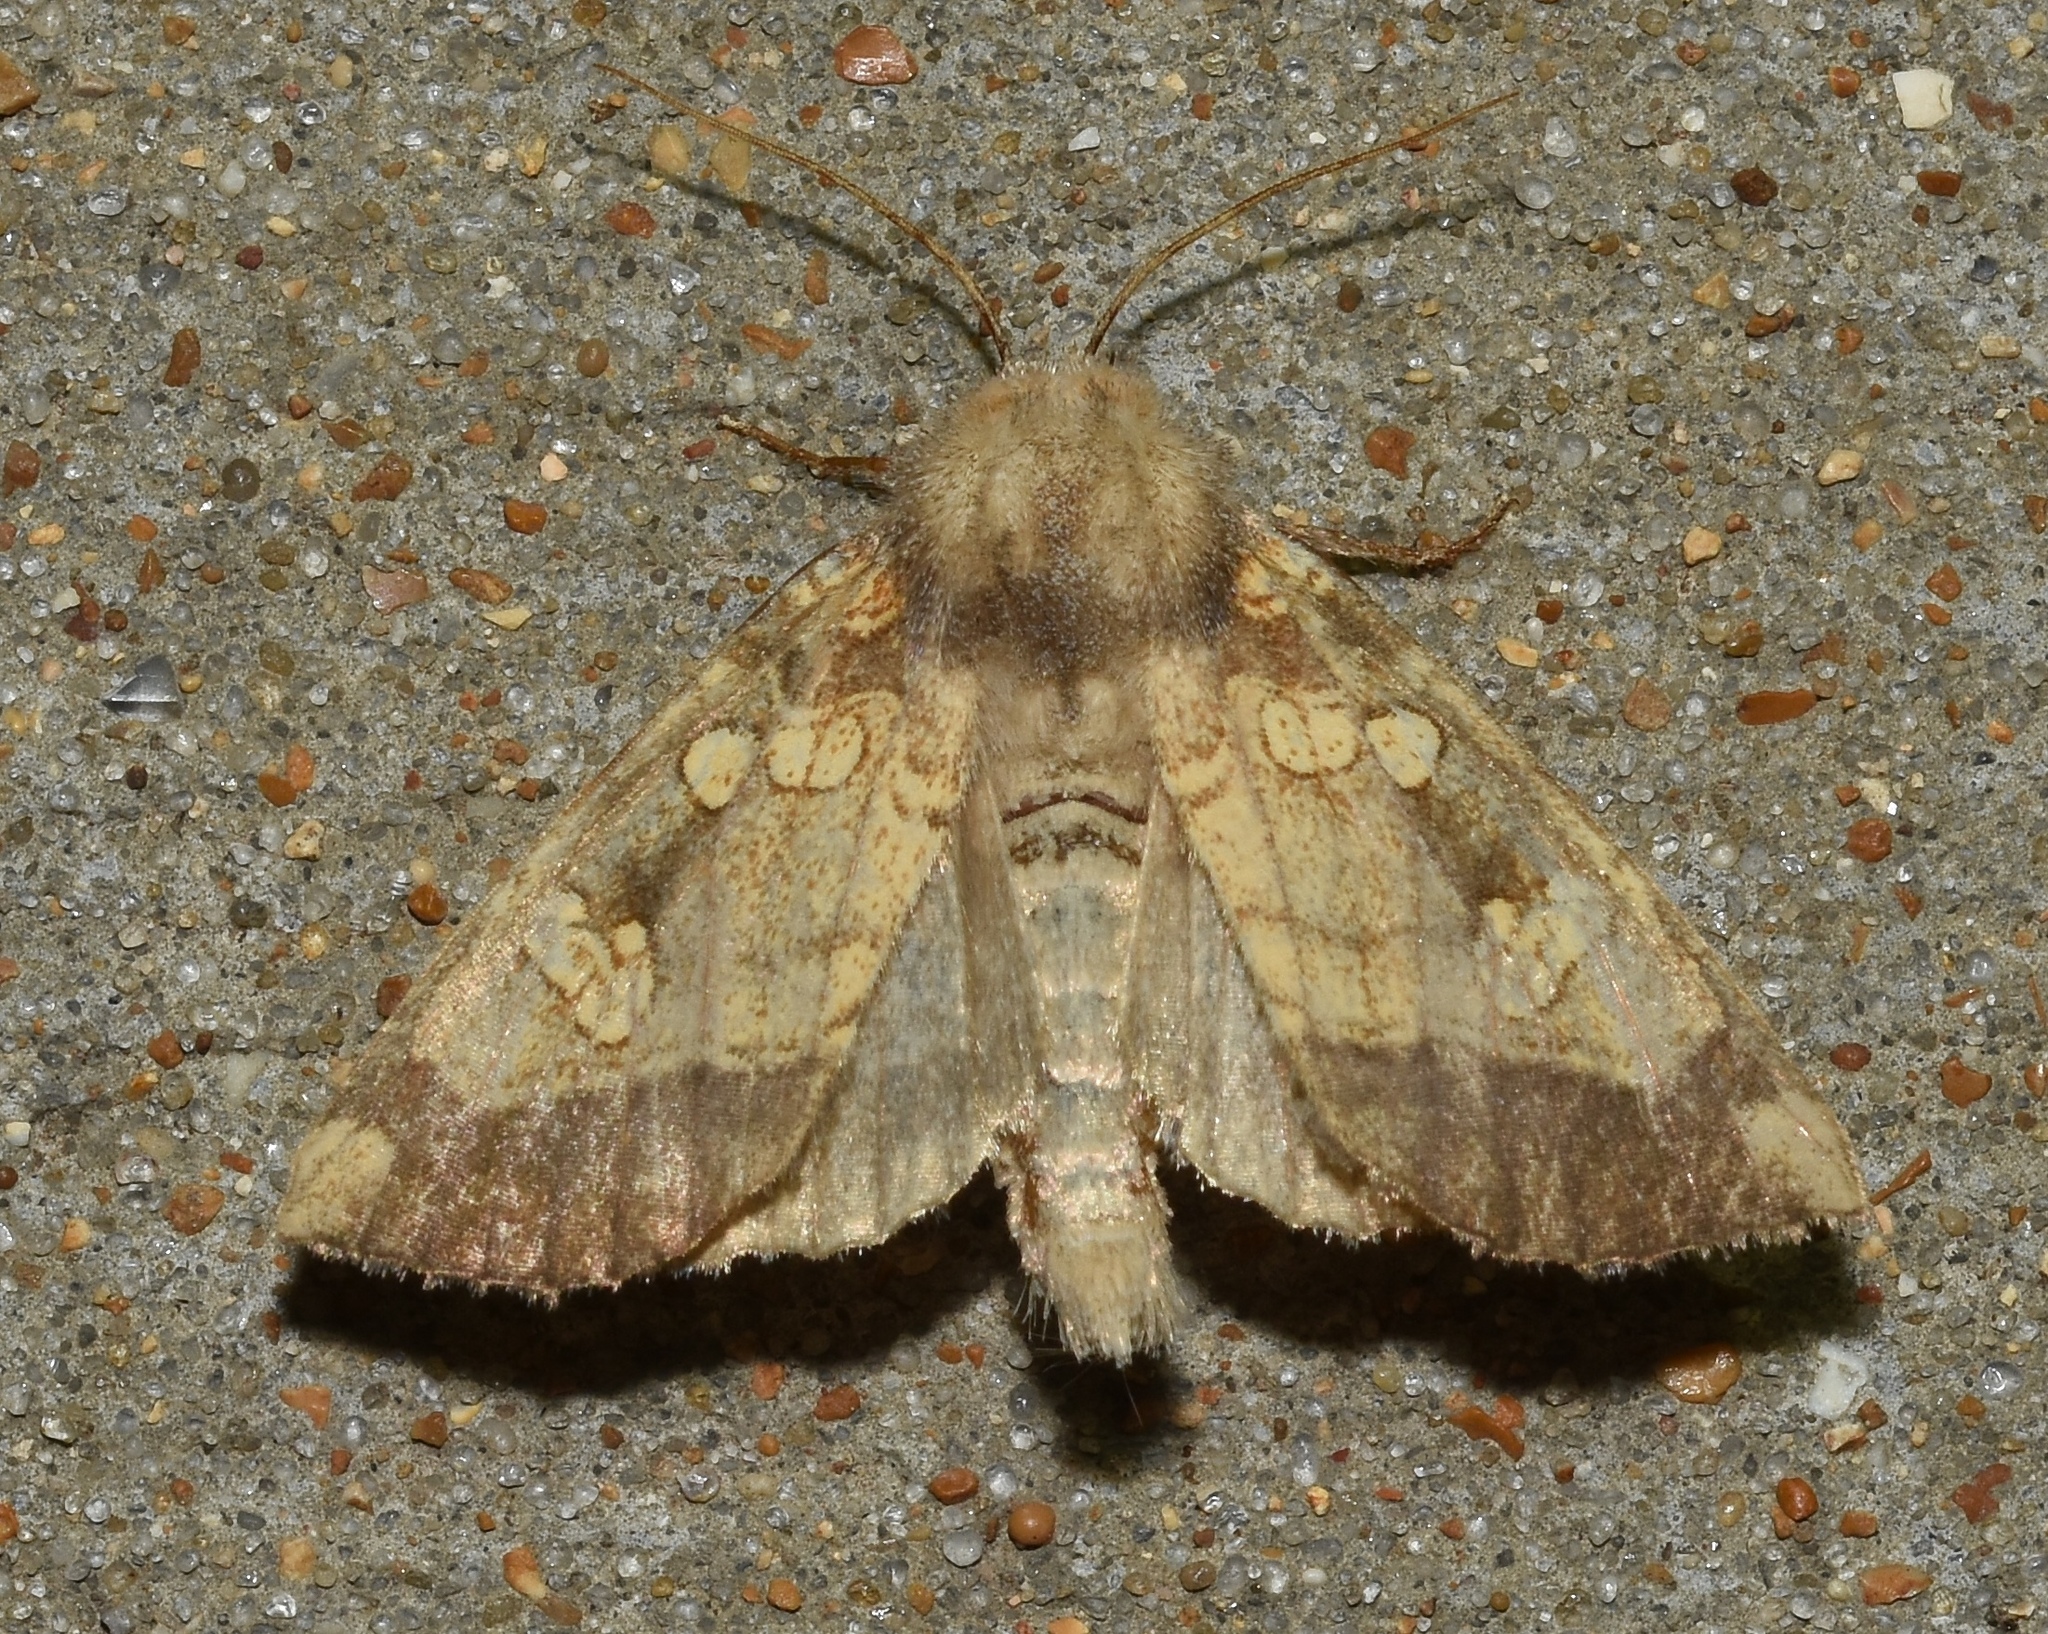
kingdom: Animalia
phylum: Arthropoda
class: Insecta
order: Lepidoptera
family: Noctuidae
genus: Papaipema
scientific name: Papaipema cataphracta
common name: Burdock borer
